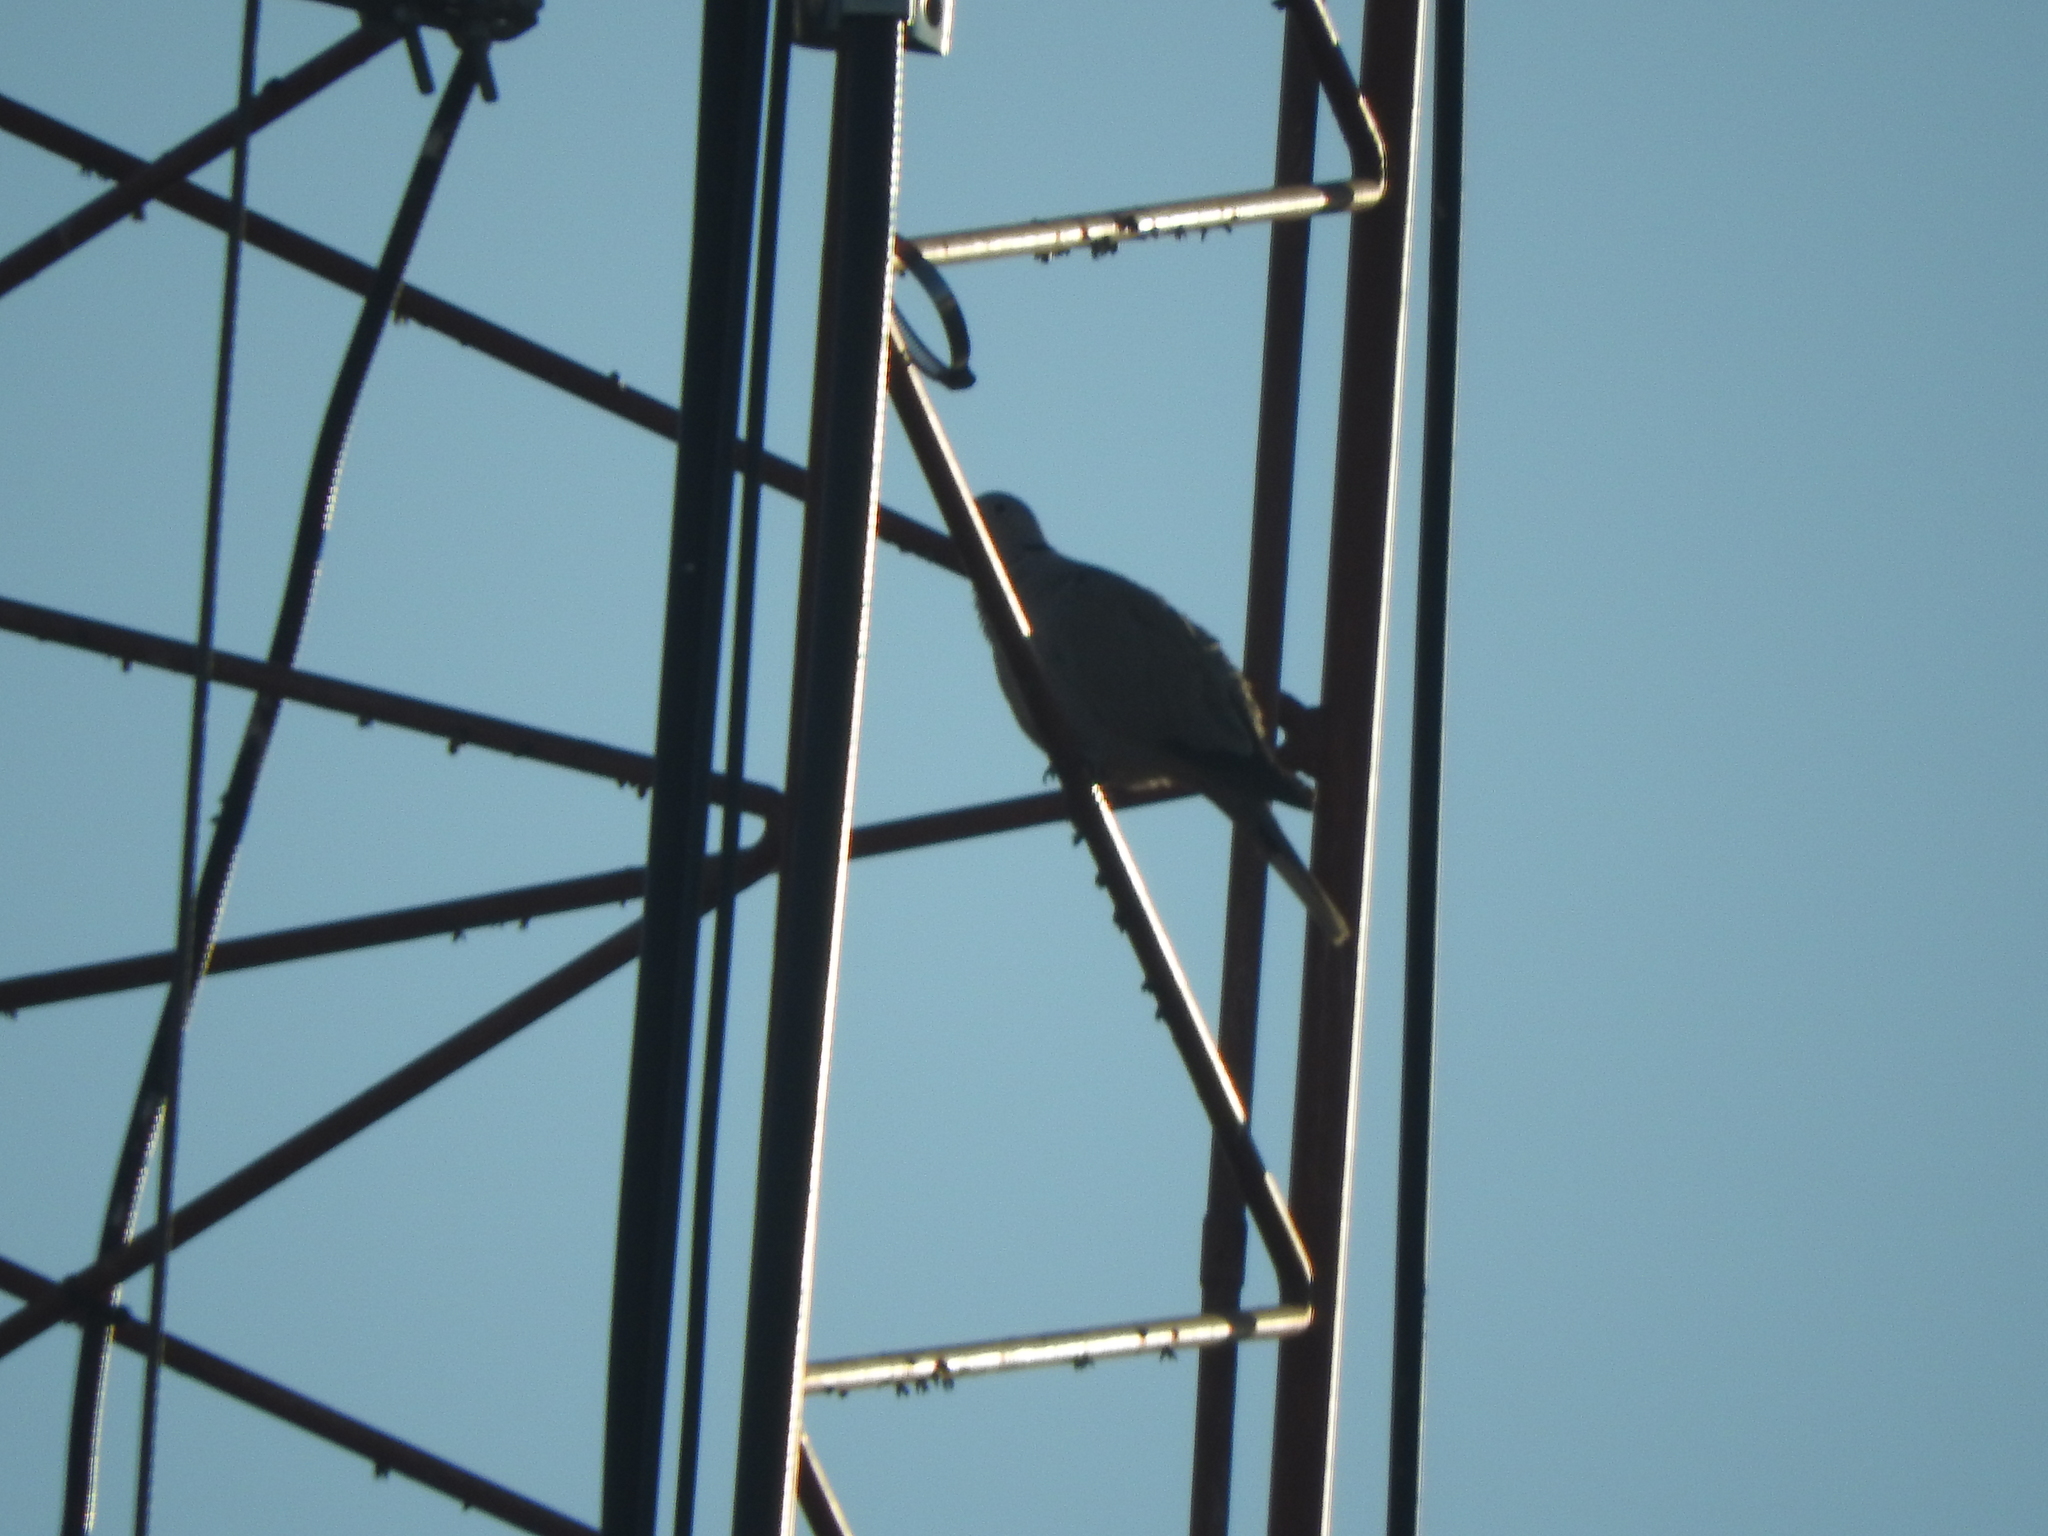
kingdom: Animalia
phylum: Chordata
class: Aves
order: Columbiformes
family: Columbidae
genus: Streptopelia
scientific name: Streptopelia decaocto
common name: Eurasian collared dove
